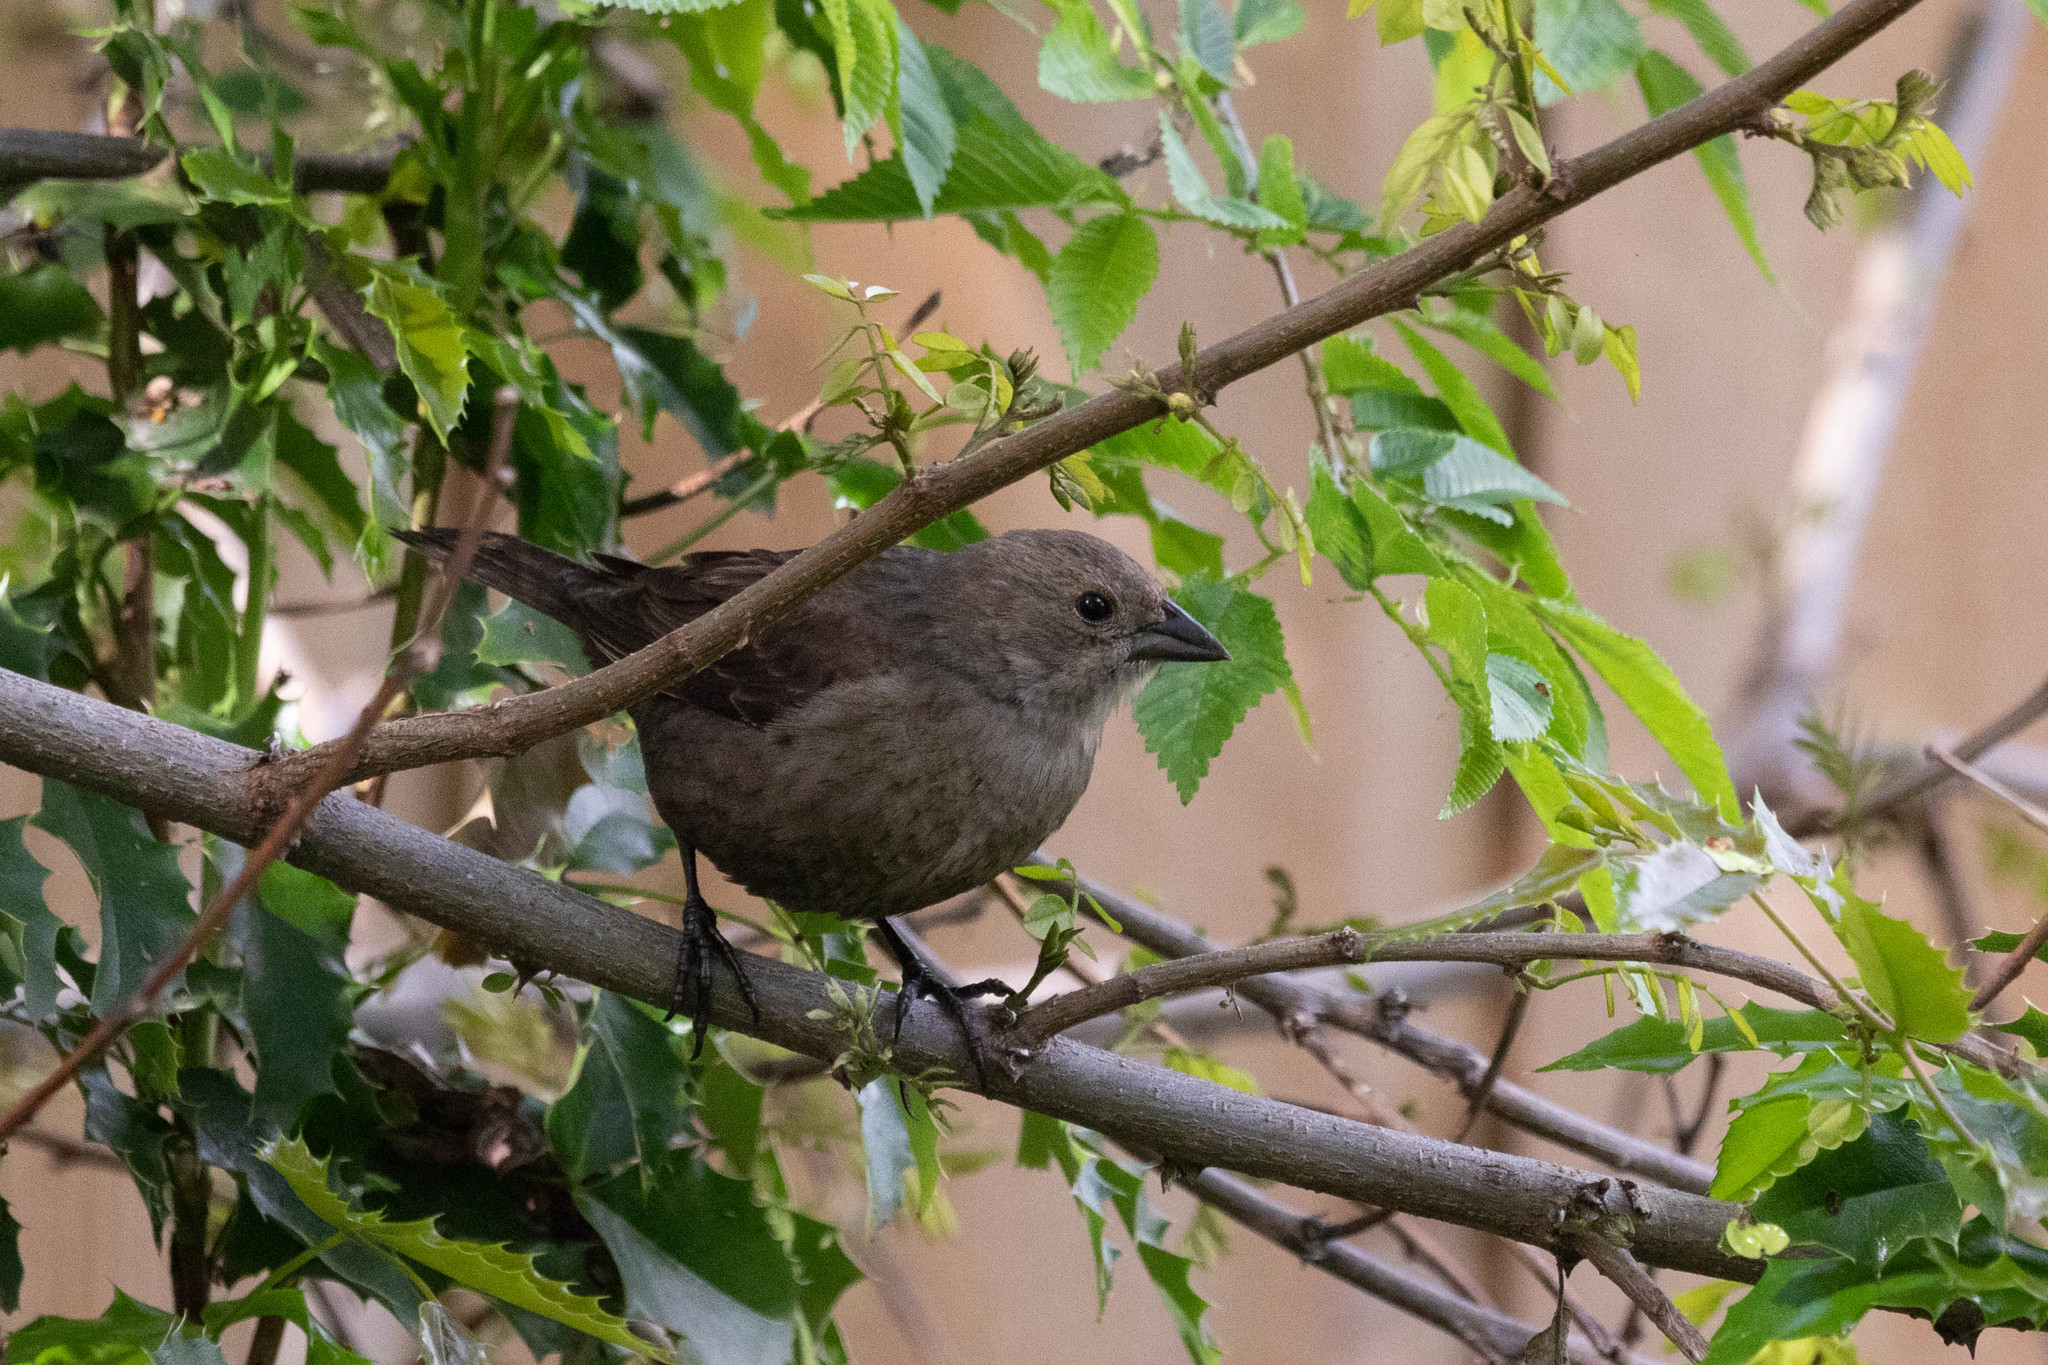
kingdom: Animalia
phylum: Chordata
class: Aves
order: Passeriformes
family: Icteridae
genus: Molothrus
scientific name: Molothrus ater
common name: Brown-headed cowbird
